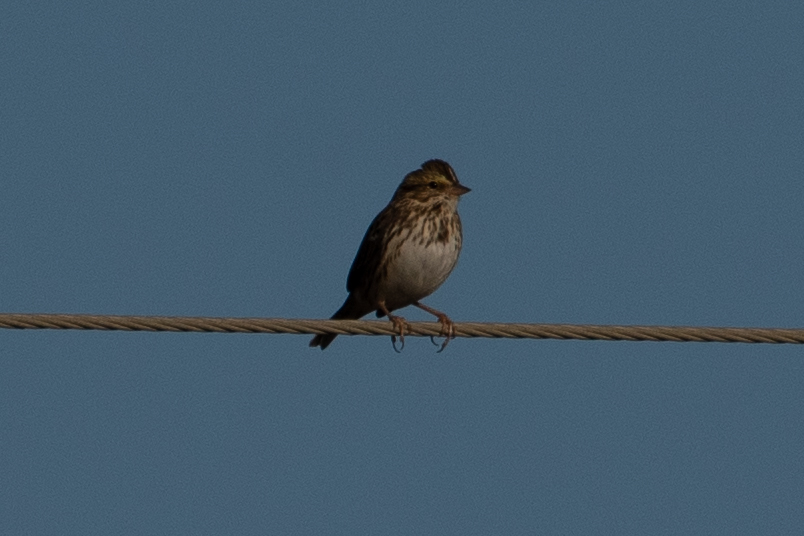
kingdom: Animalia
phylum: Chordata
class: Aves
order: Passeriformes
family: Passerellidae
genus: Passerculus
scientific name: Passerculus sandwichensis
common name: Savannah sparrow
